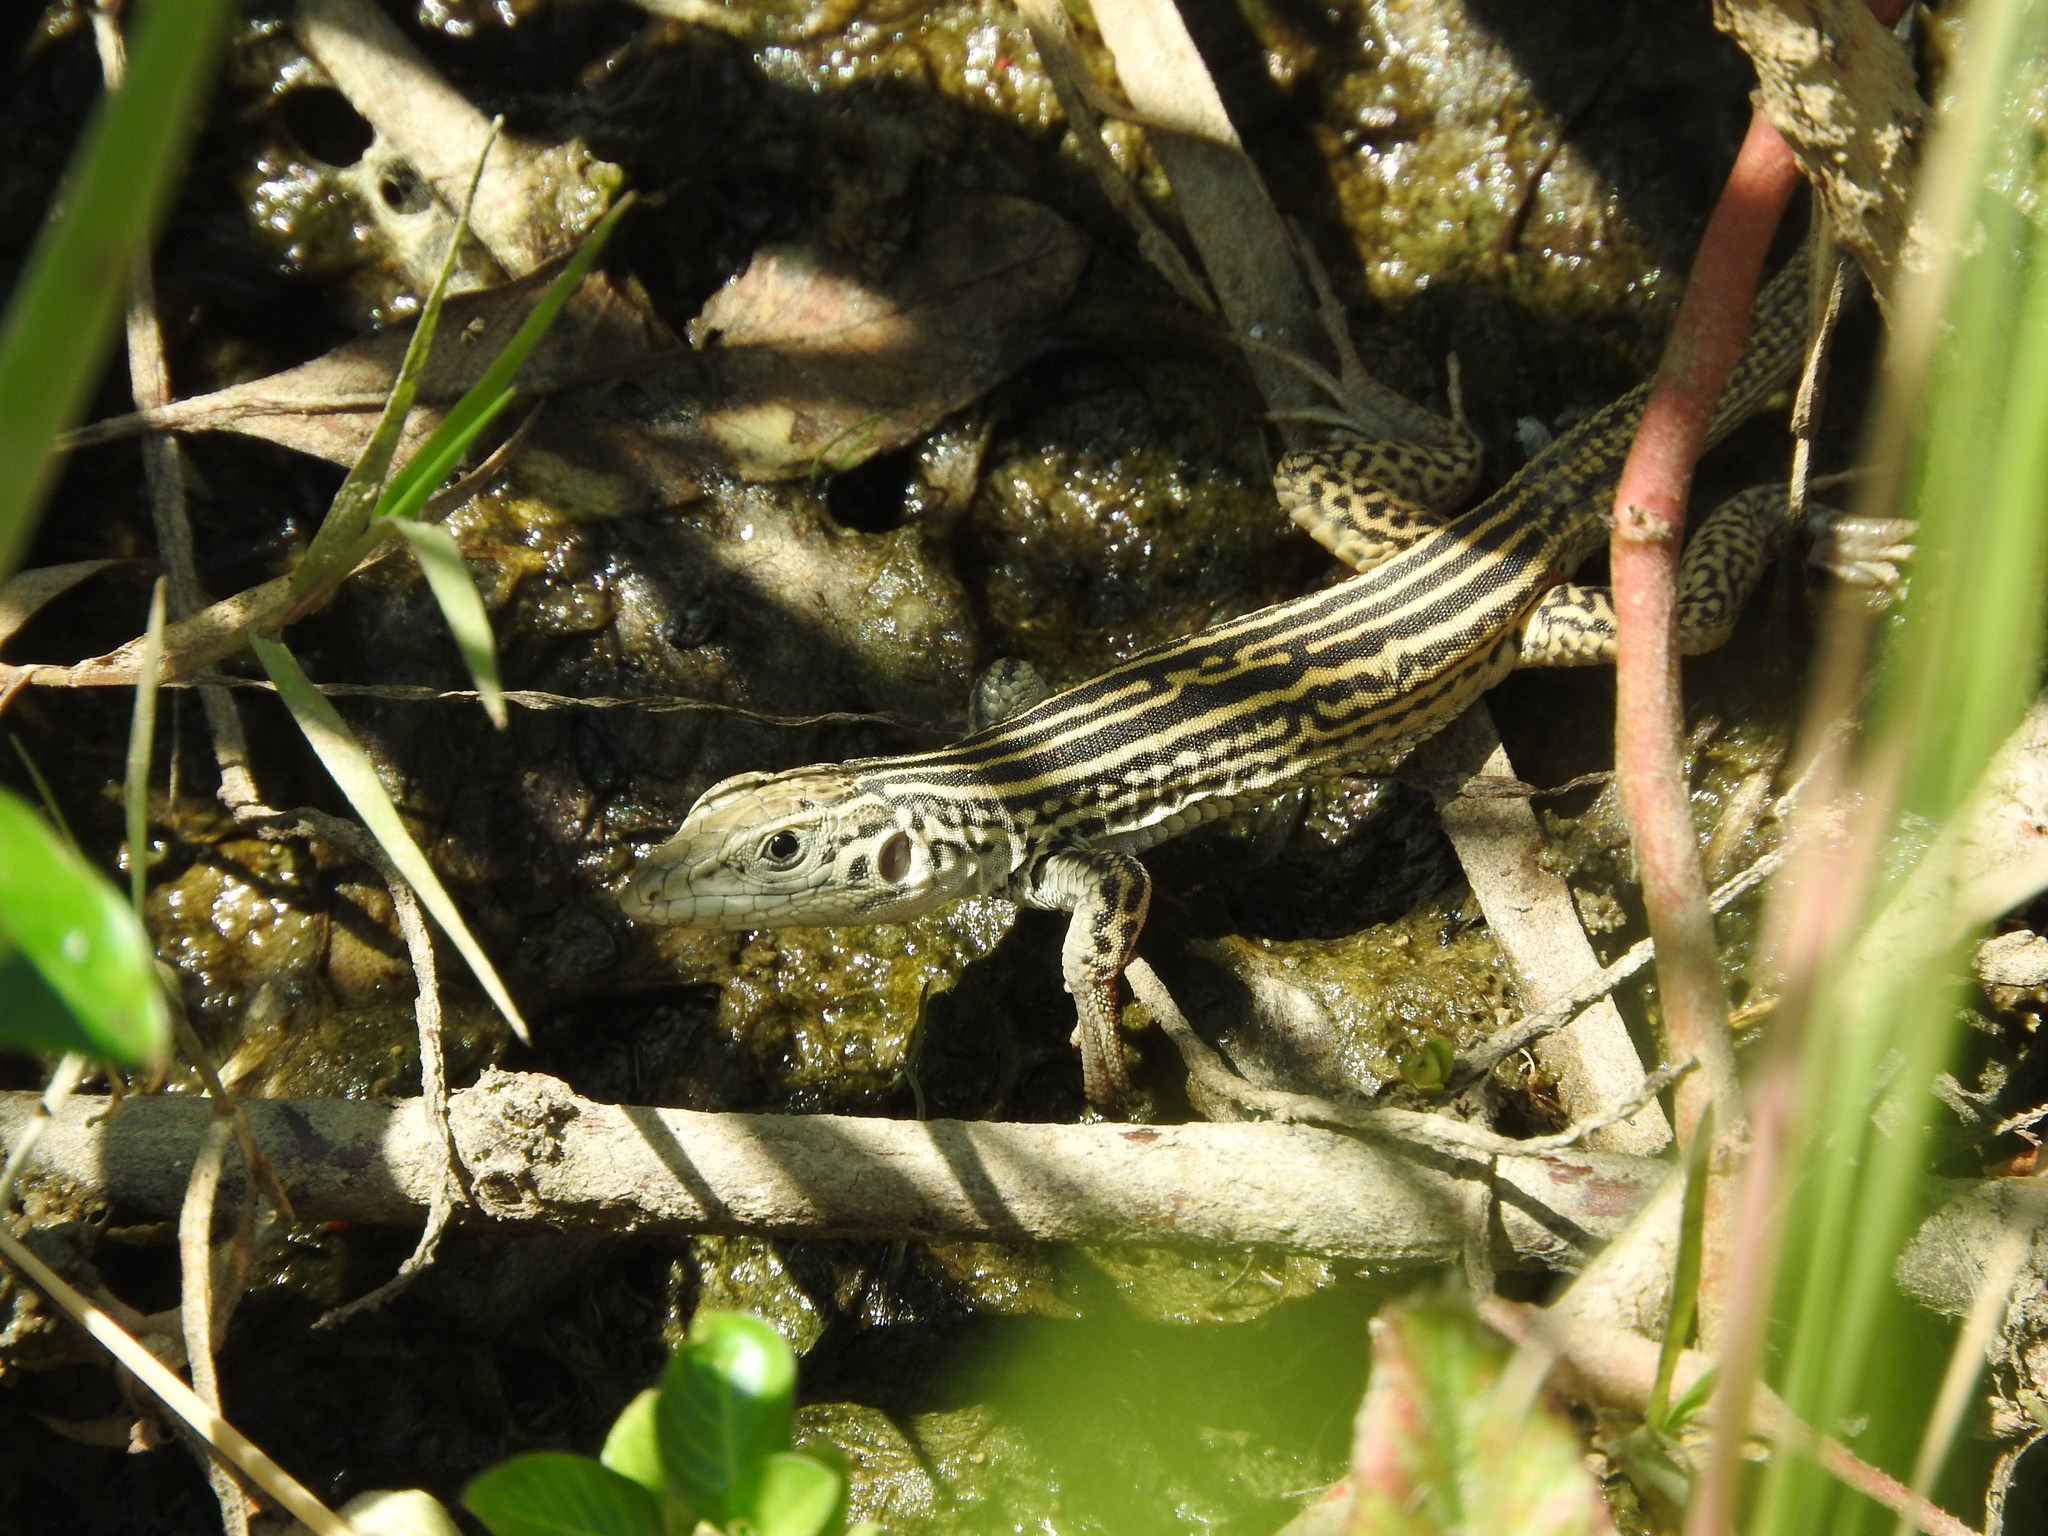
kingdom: Animalia
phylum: Chordata
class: Squamata
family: Teiidae
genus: Aspidoscelis
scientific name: Aspidoscelis tigris
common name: Tiger whiptail
